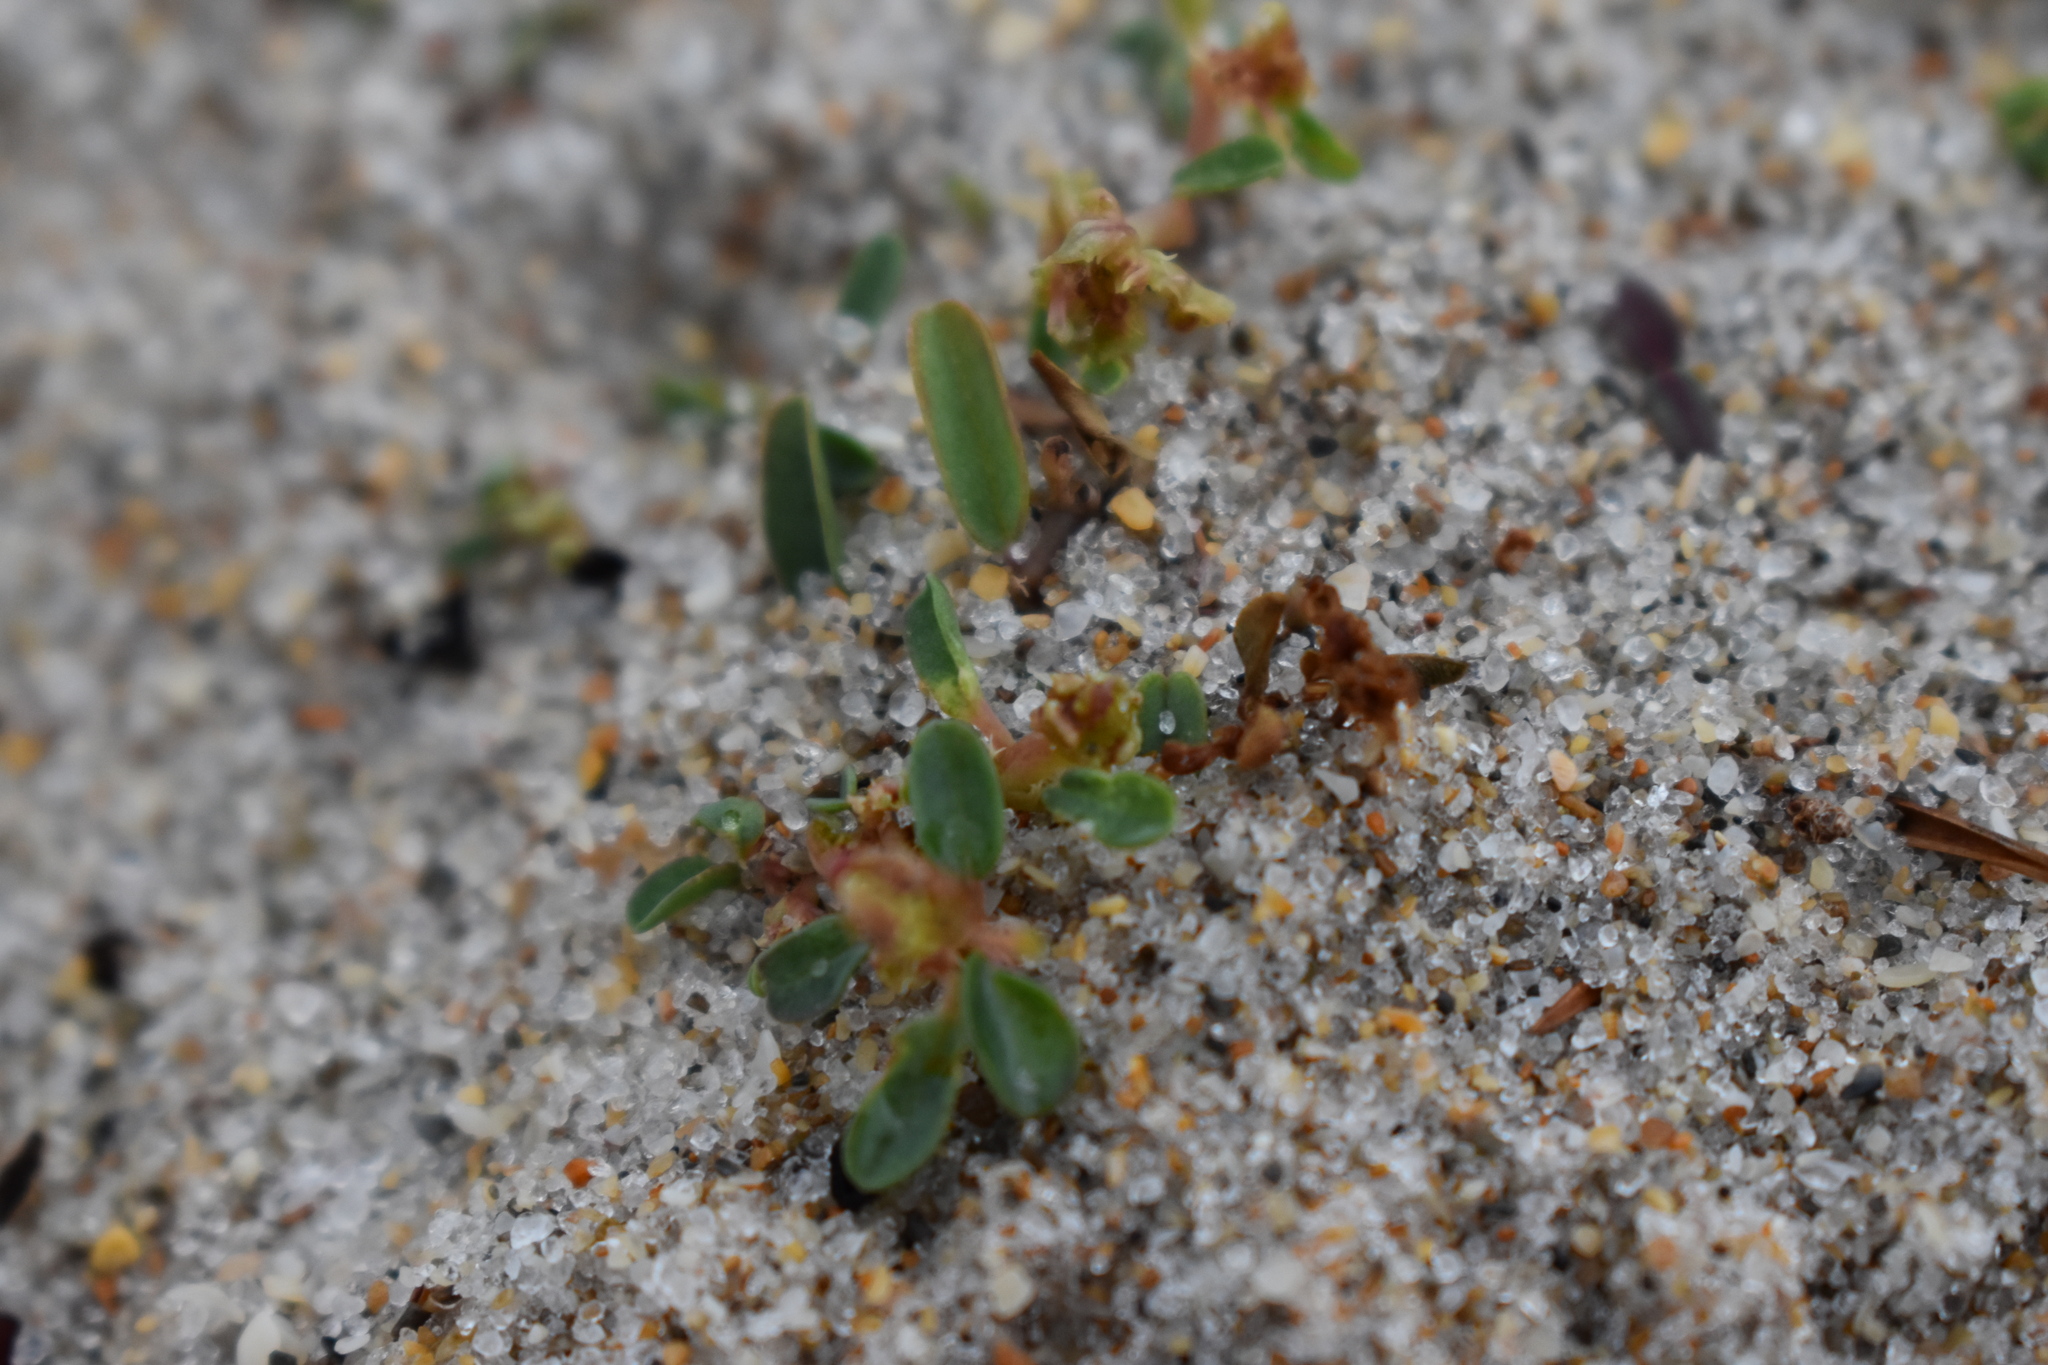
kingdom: Plantae
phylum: Tracheophyta
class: Magnoliopsida
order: Malpighiales
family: Euphorbiaceae
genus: Euphorbia
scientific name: Euphorbia bombensis
